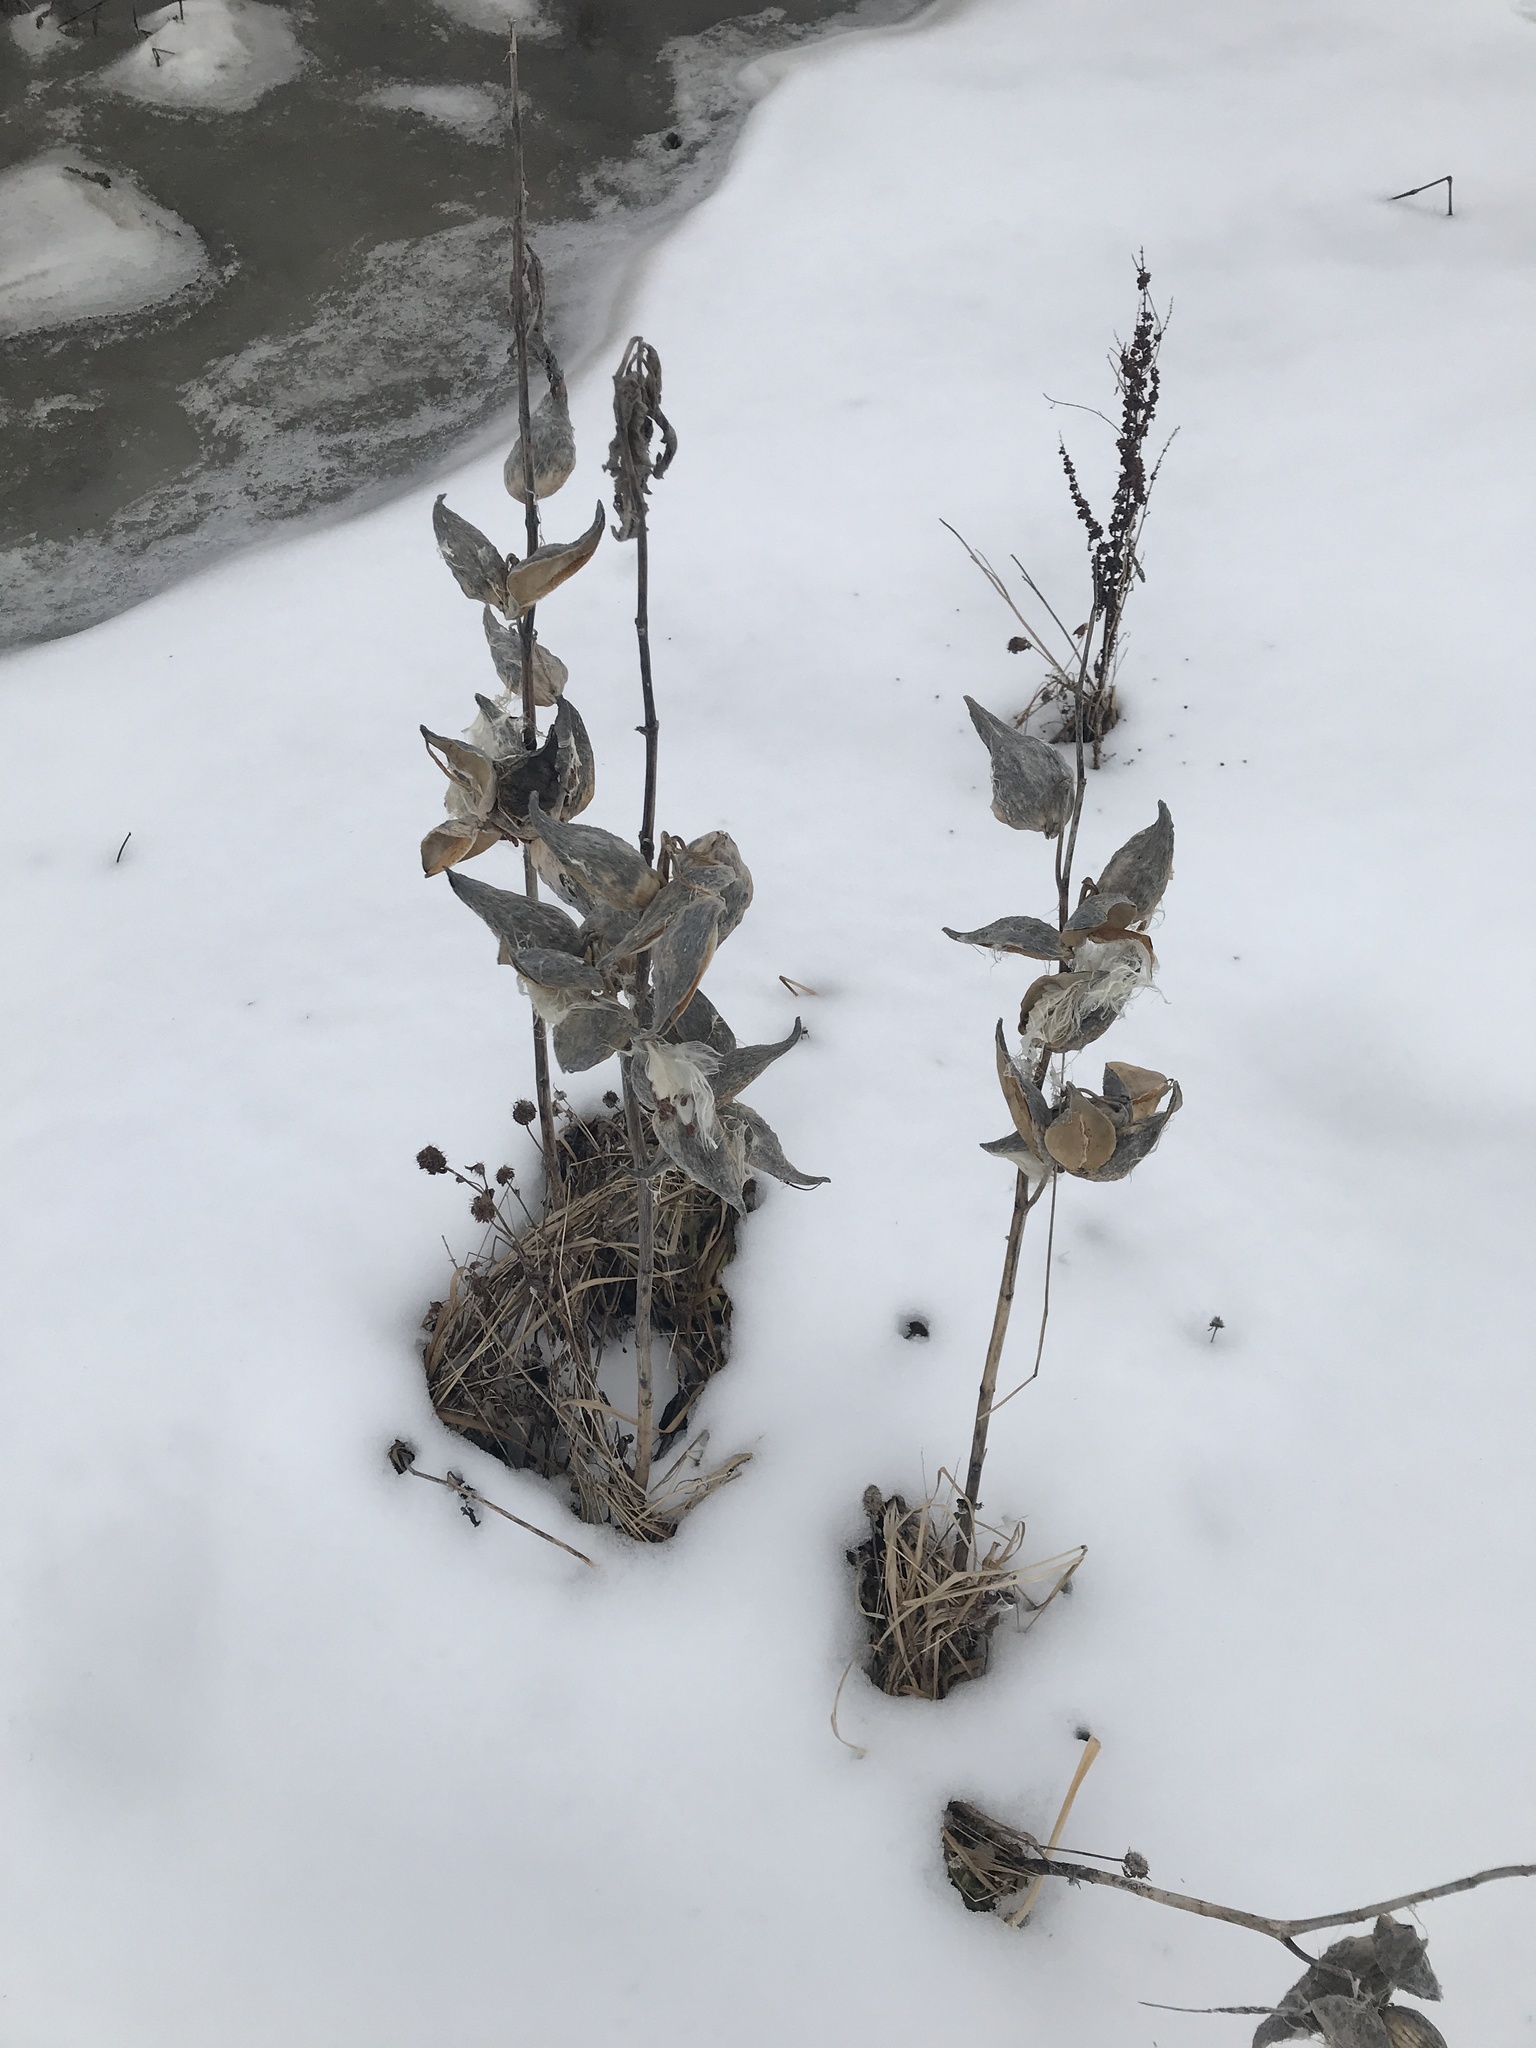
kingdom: Plantae
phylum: Tracheophyta
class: Magnoliopsida
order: Gentianales
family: Apocynaceae
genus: Asclepias
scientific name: Asclepias syriaca
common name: Common milkweed
